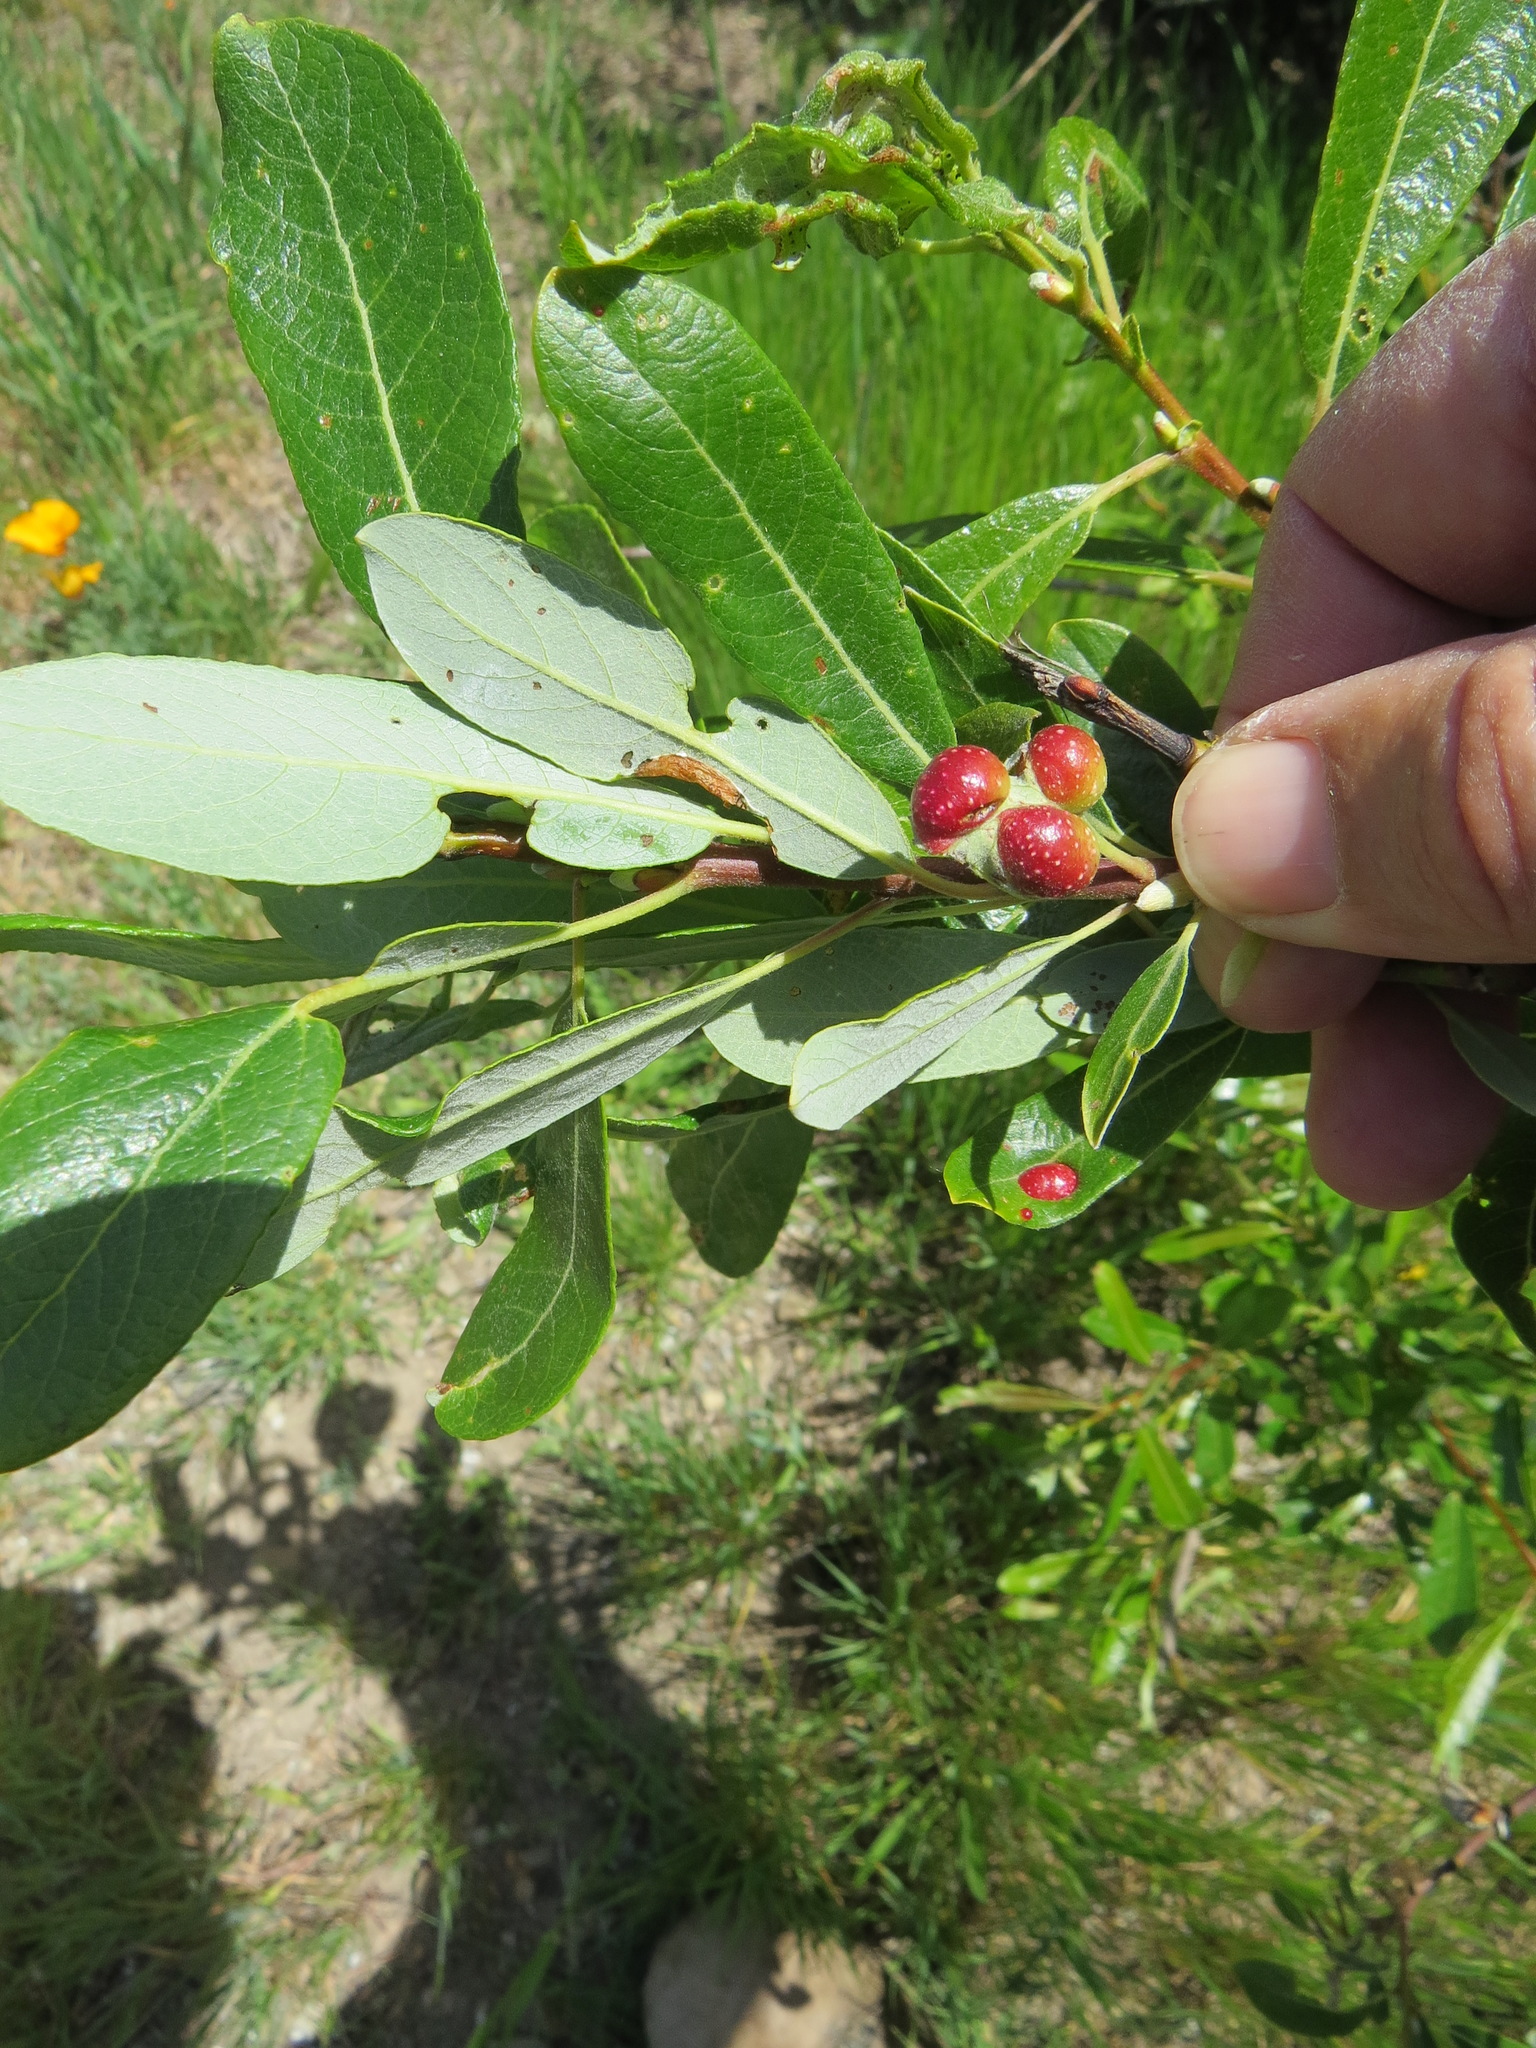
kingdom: Animalia
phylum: Arthropoda
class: Insecta
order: Hymenoptera
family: Tenthredinidae
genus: Euura
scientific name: Euura
